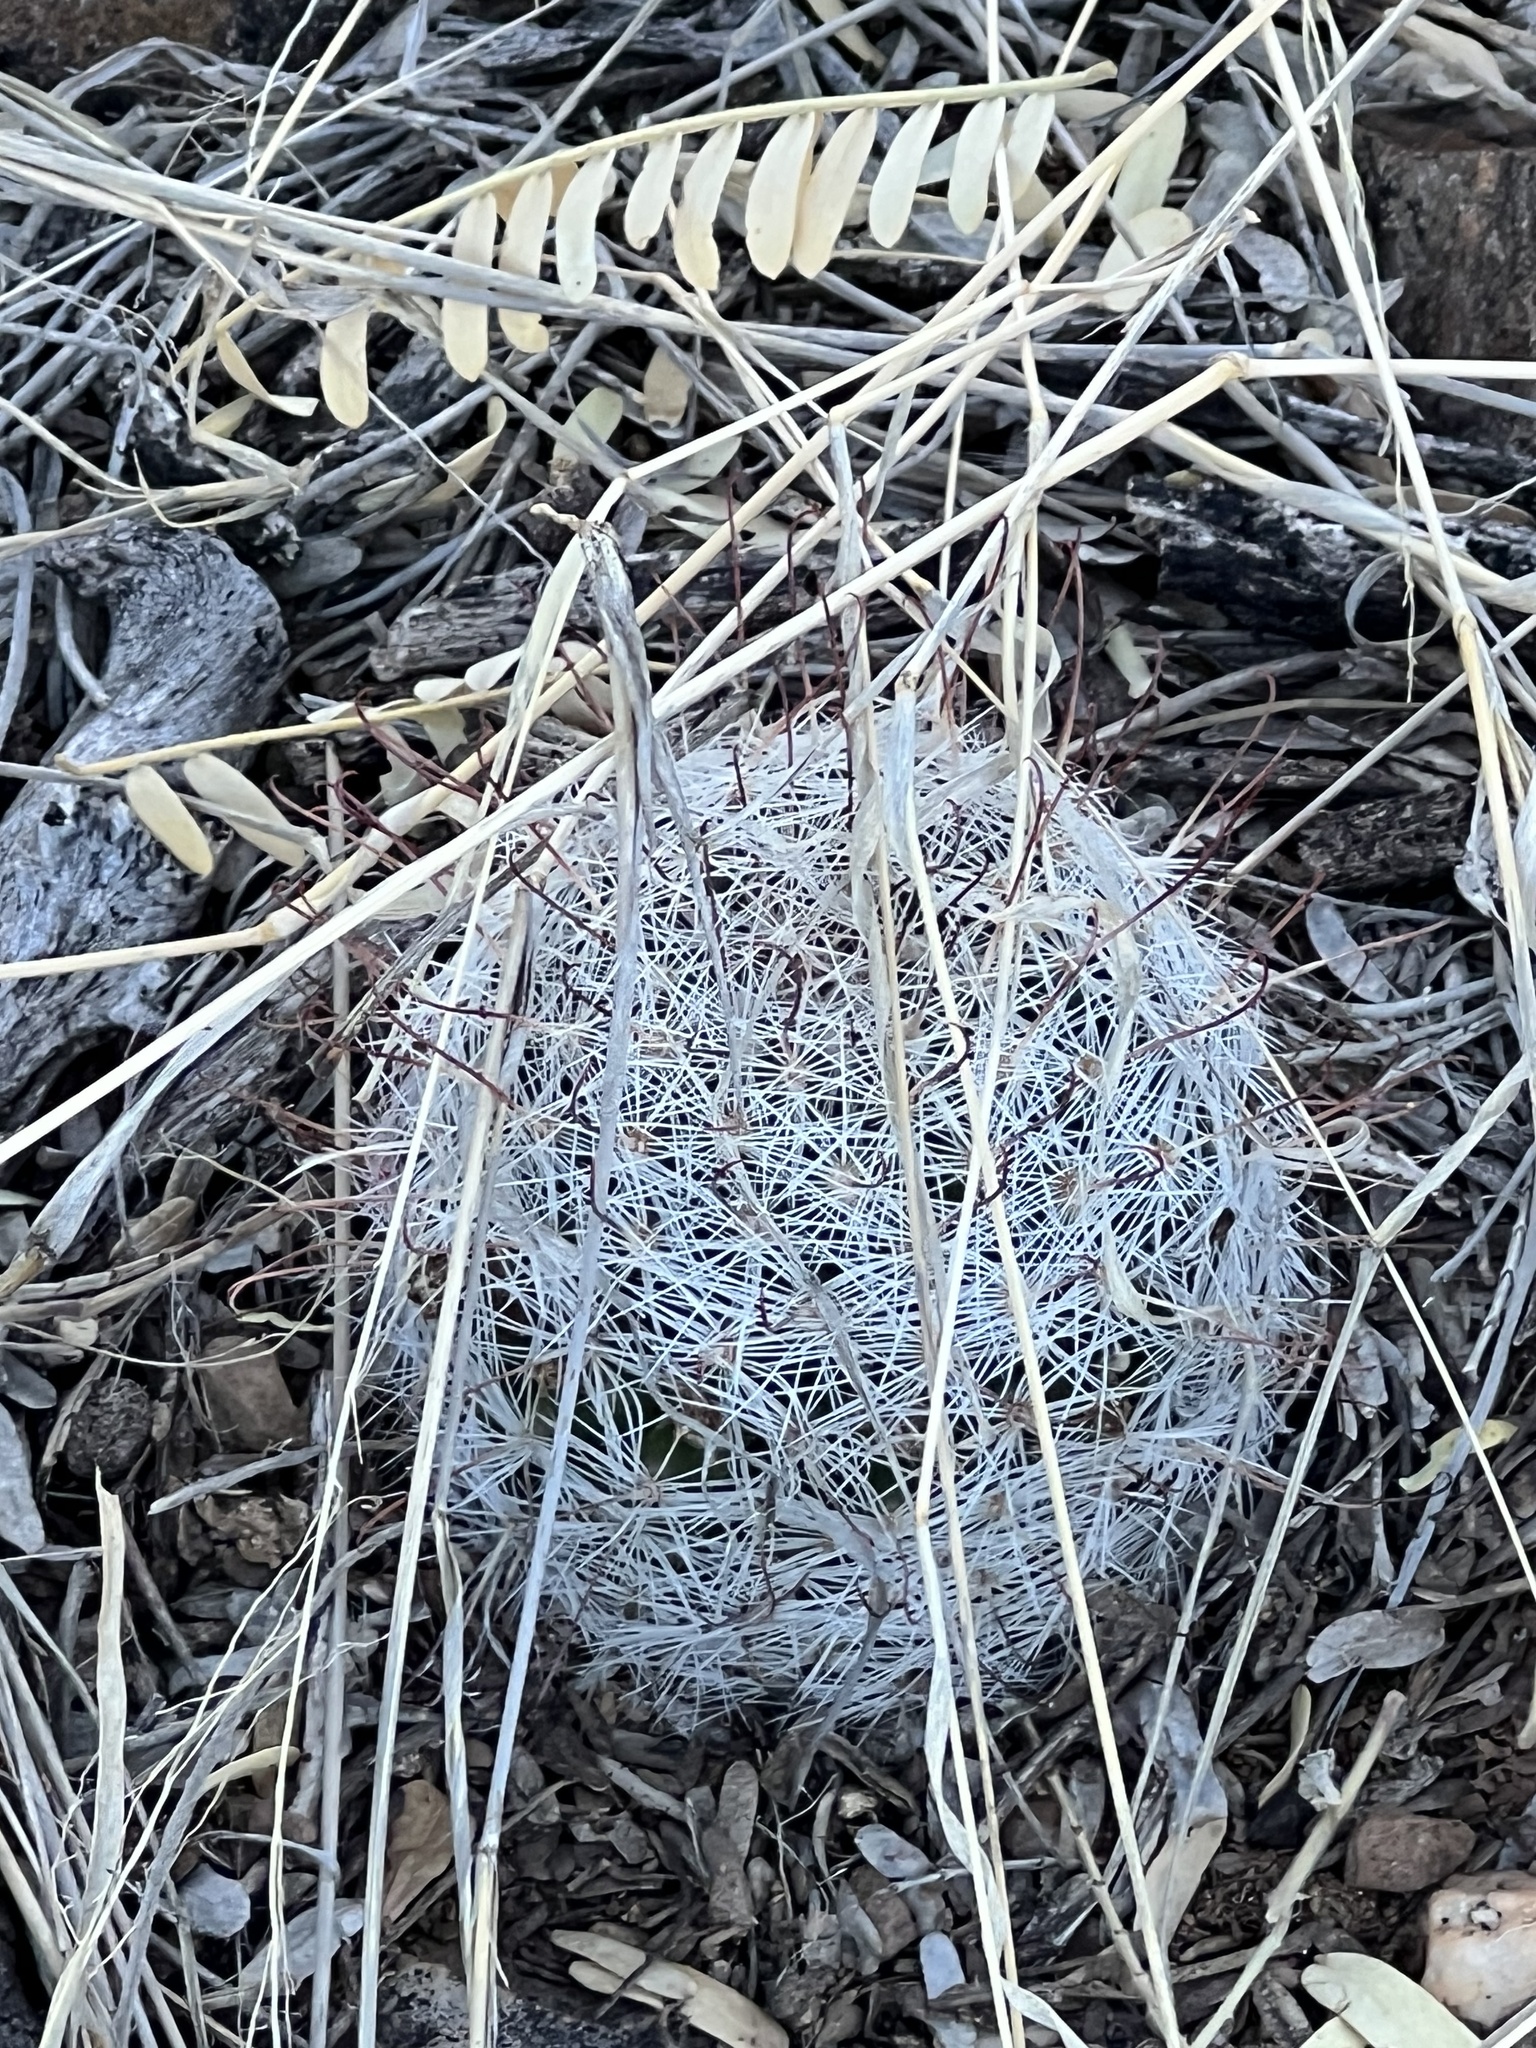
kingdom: Plantae
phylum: Tracheophyta
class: Magnoliopsida
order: Caryophyllales
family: Cactaceae
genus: Cochemiea
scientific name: Cochemiea grahamii
